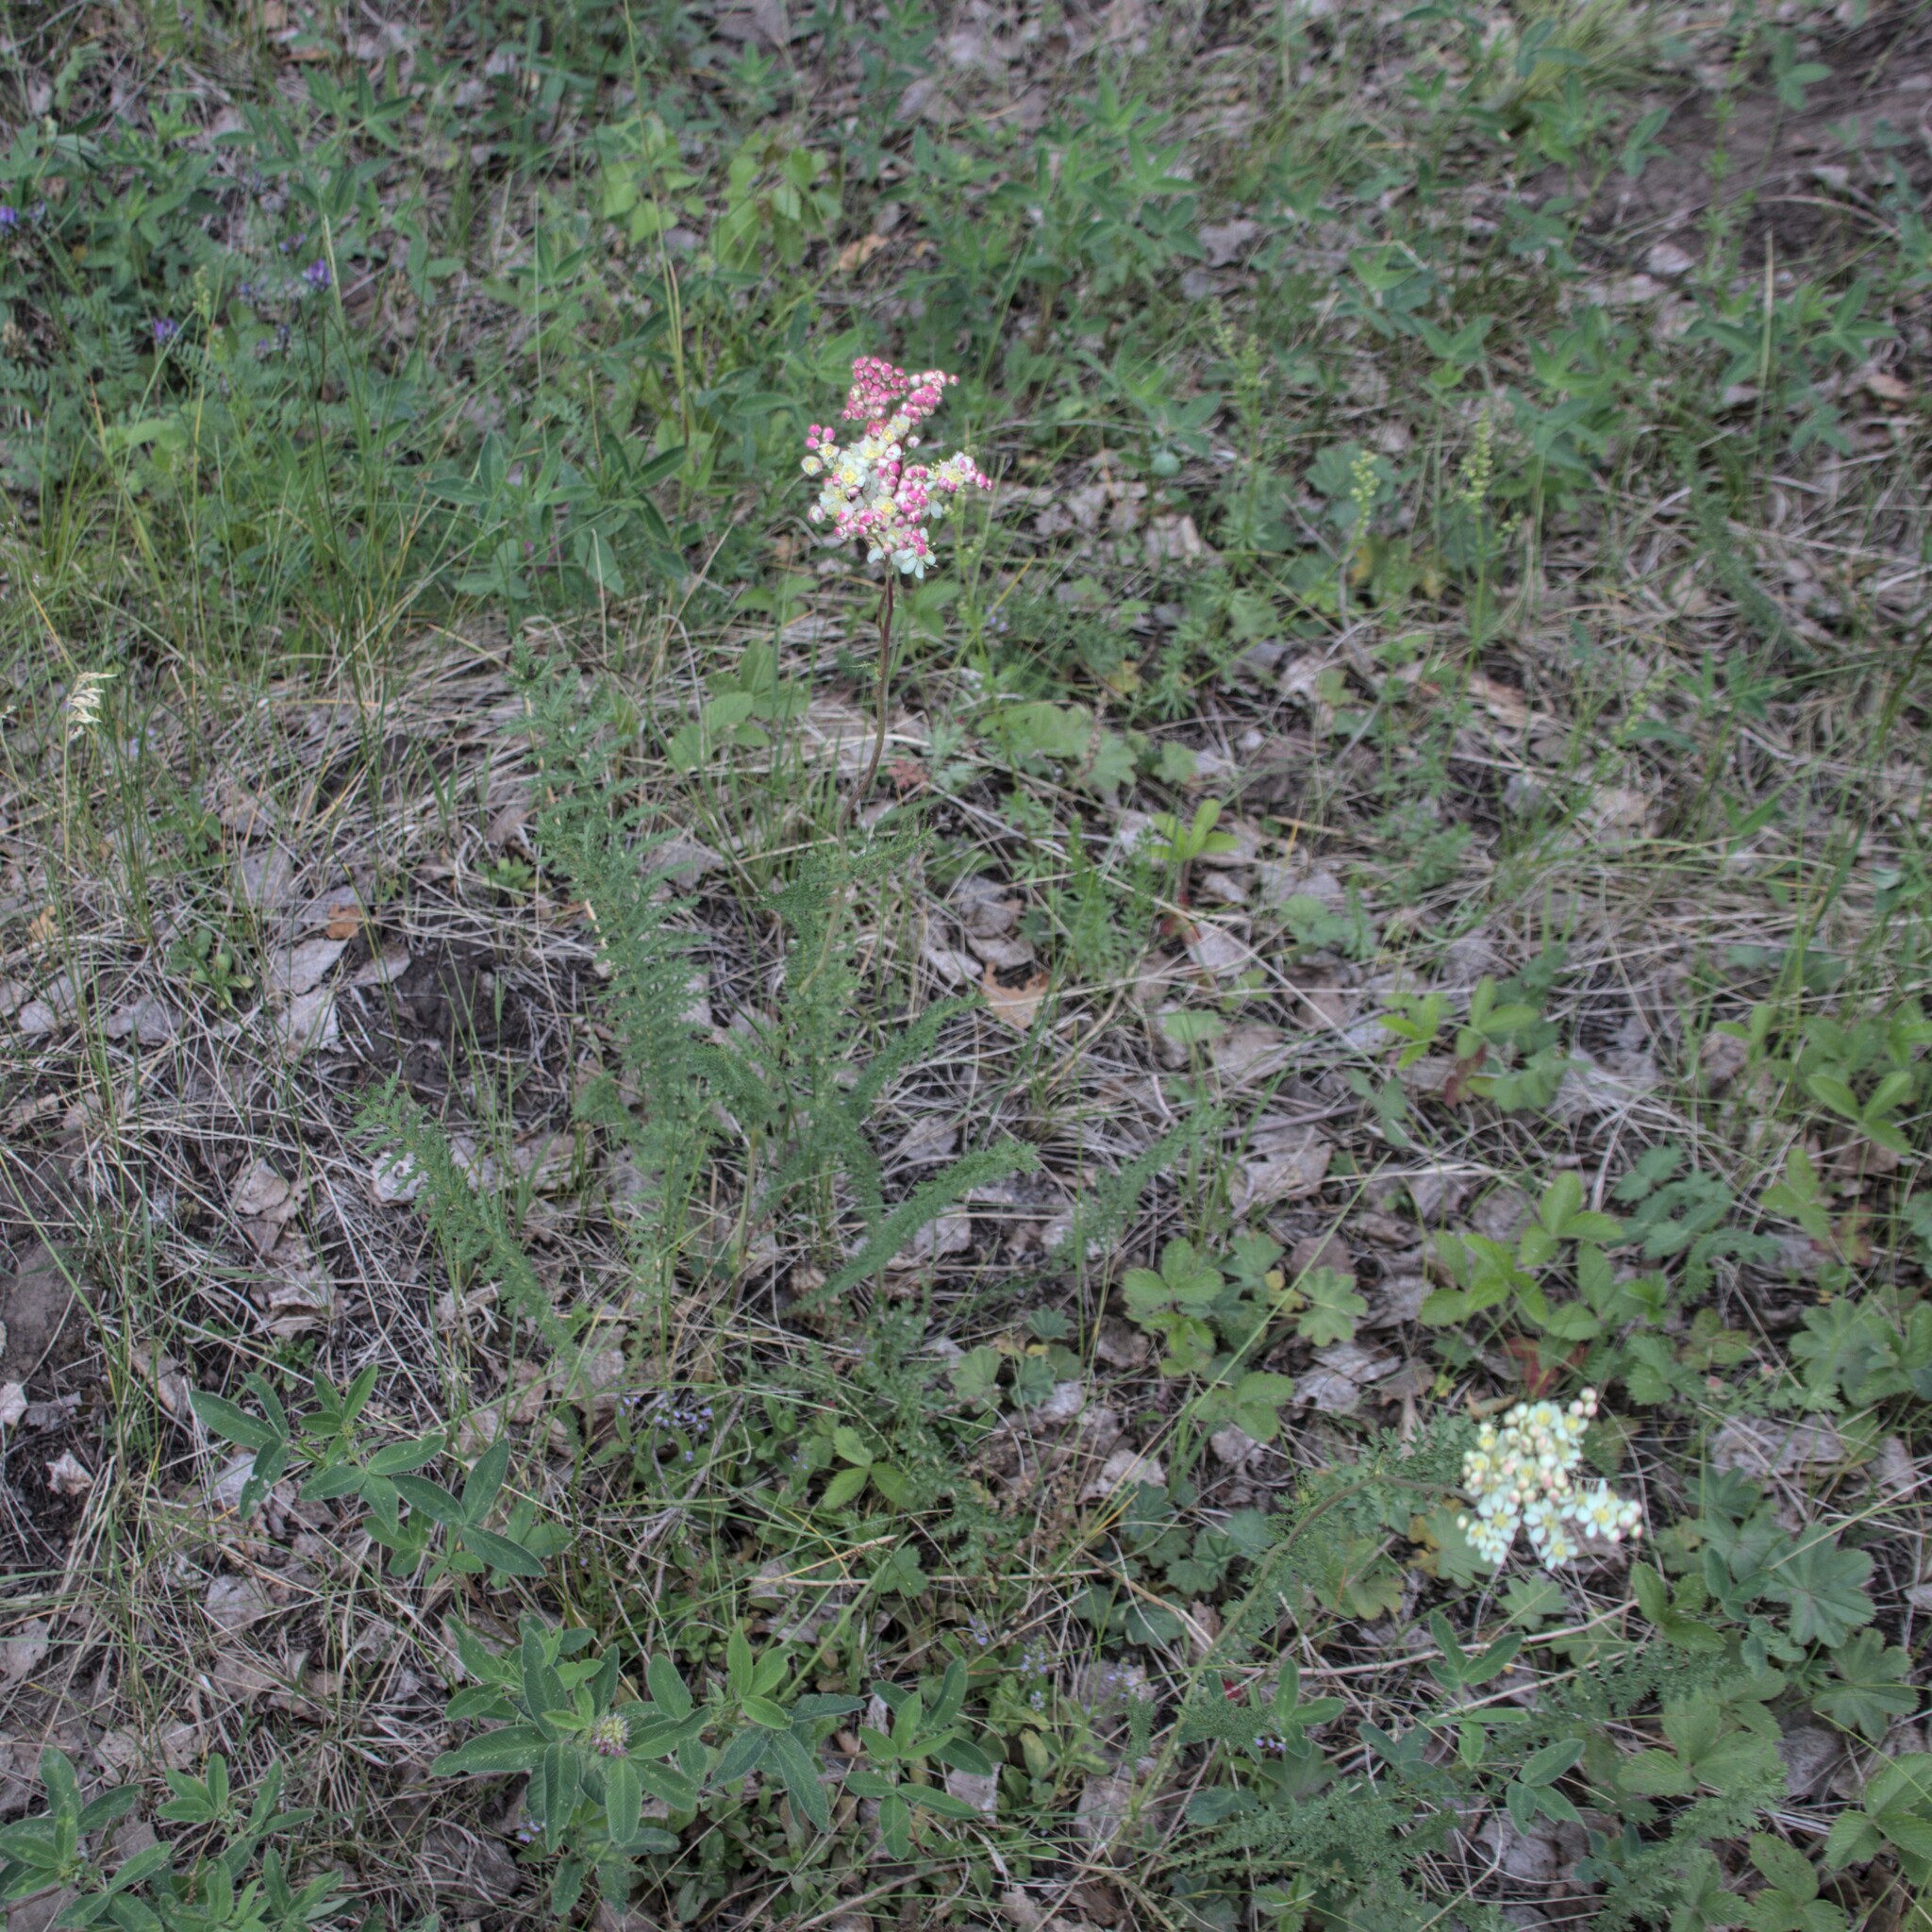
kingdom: Plantae
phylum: Tracheophyta
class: Magnoliopsida
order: Rosales
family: Rosaceae
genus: Filipendula
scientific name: Filipendula vulgaris
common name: Dropwort
